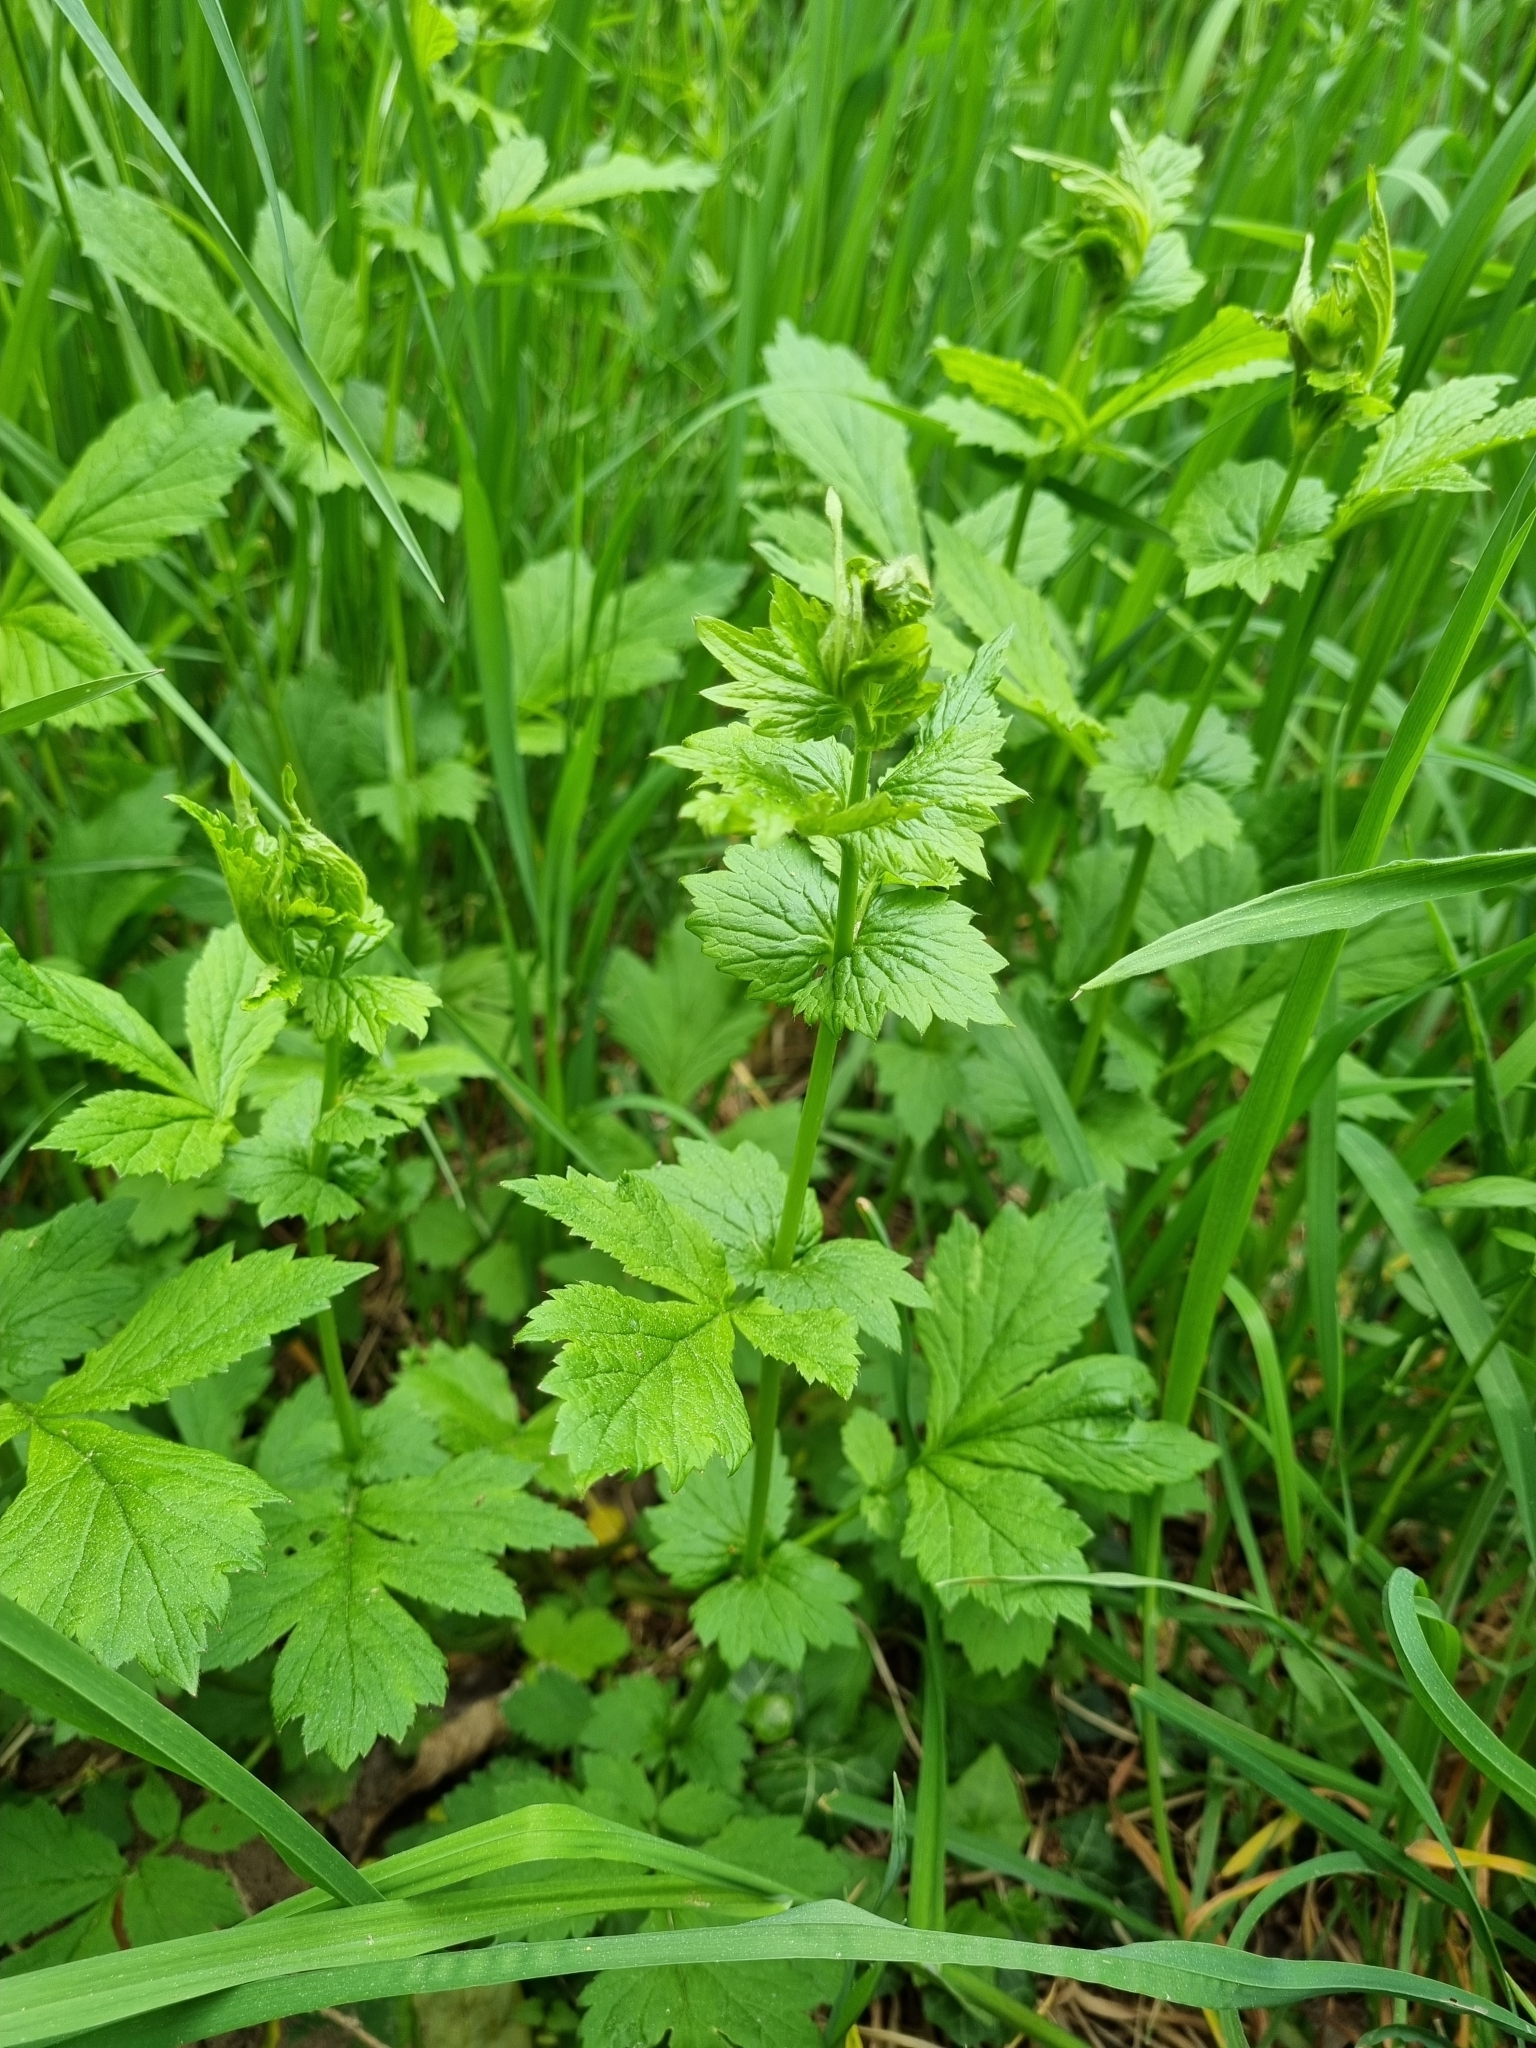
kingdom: Plantae
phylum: Tracheophyta
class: Magnoliopsida
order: Rosales
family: Rosaceae
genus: Geum
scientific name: Geum urbanum
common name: Wood avens
